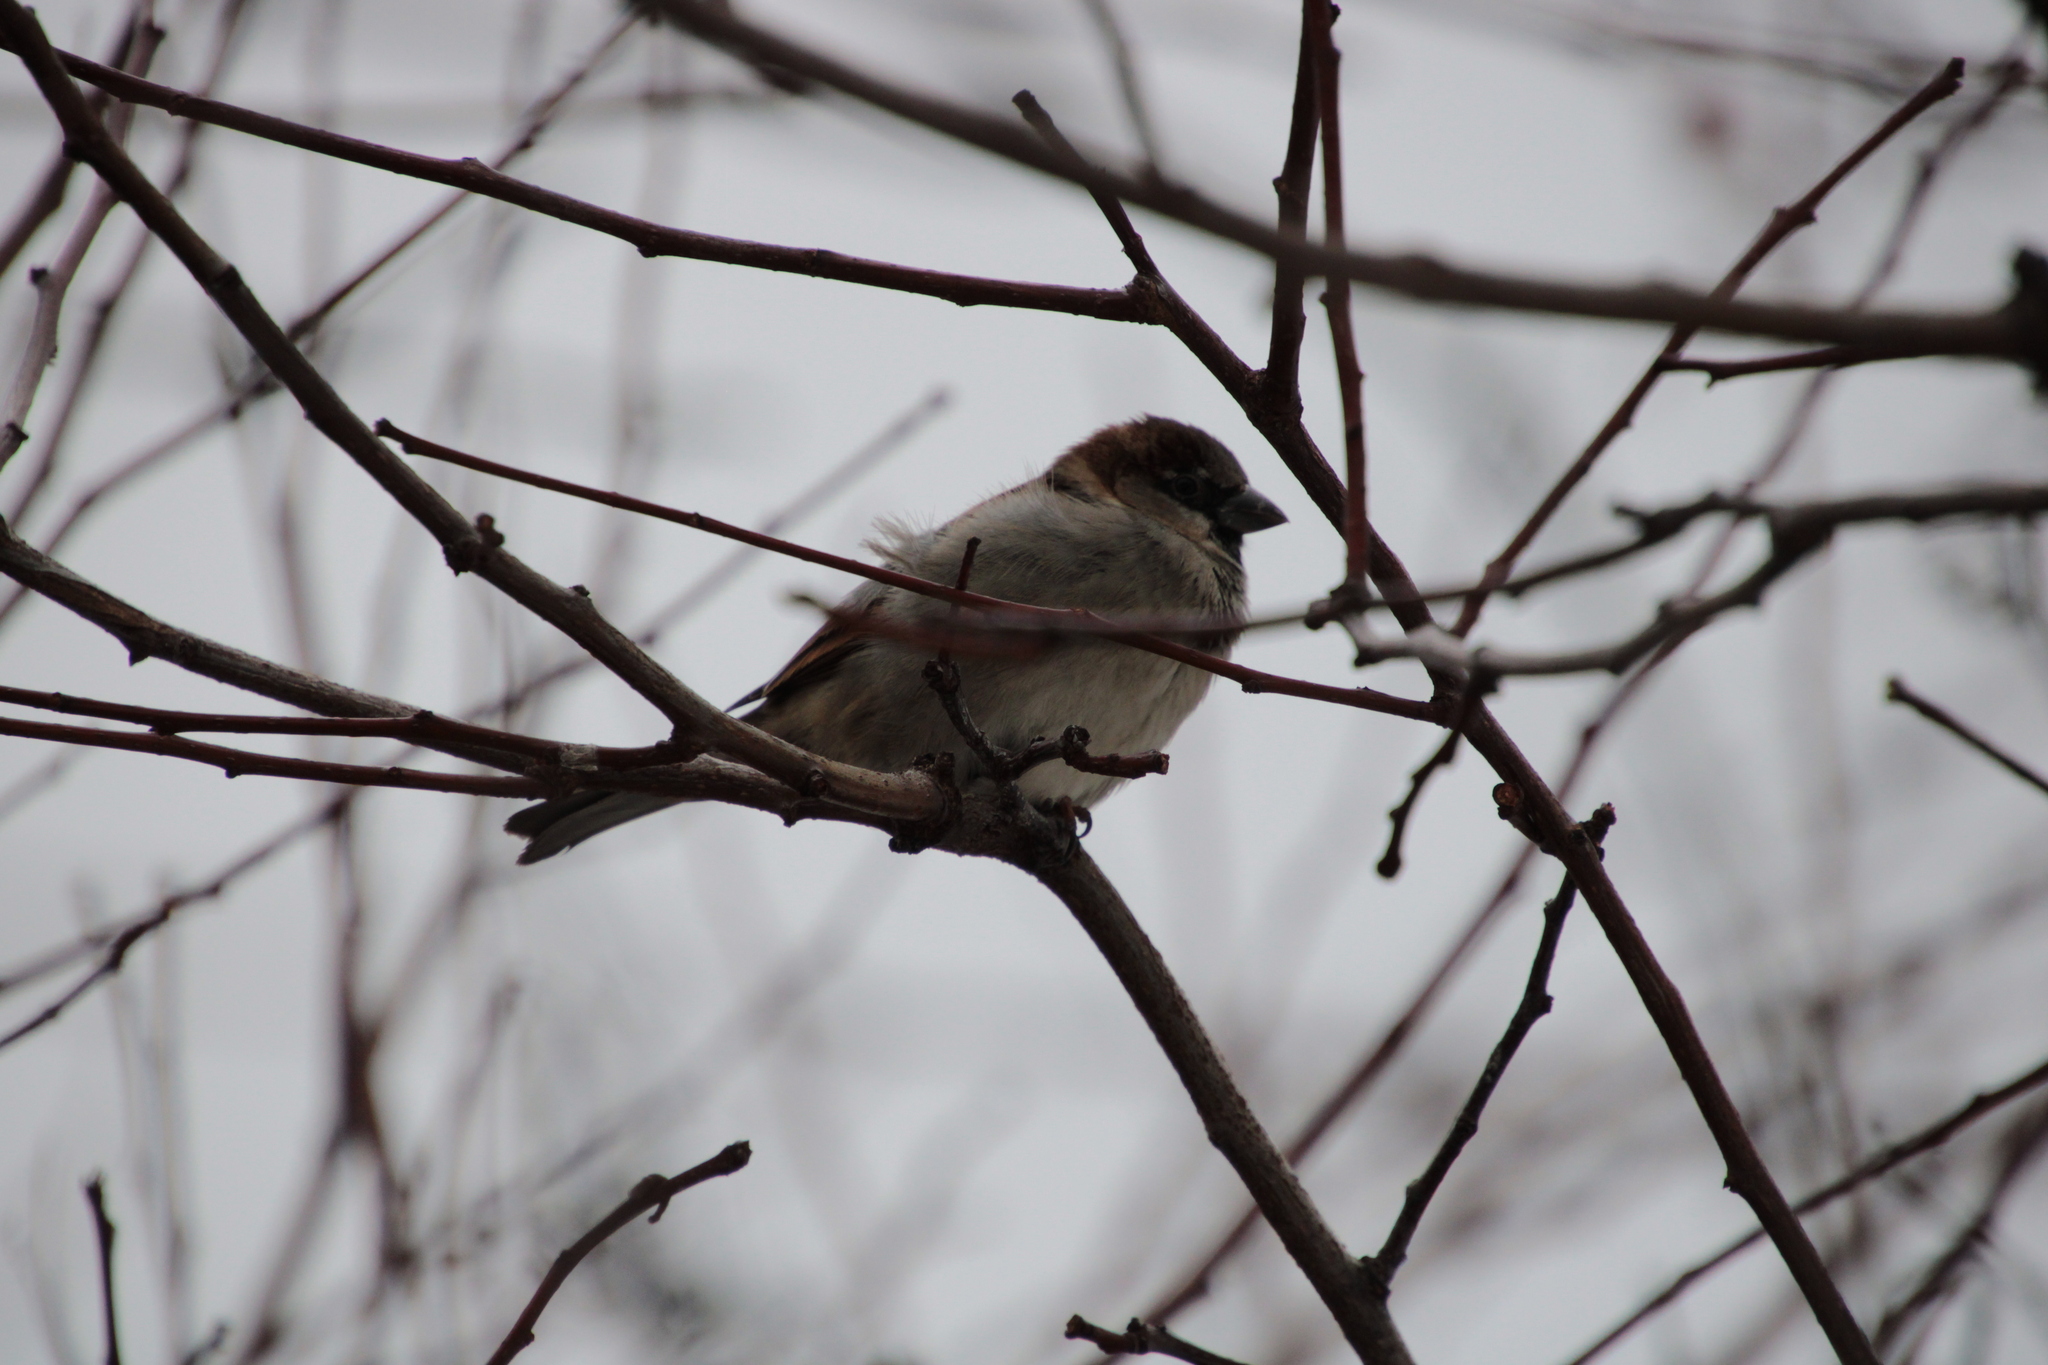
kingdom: Animalia
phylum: Chordata
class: Aves
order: Passeriformes
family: Passeridae
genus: Passer
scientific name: Passer domesticus
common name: House sparrow
